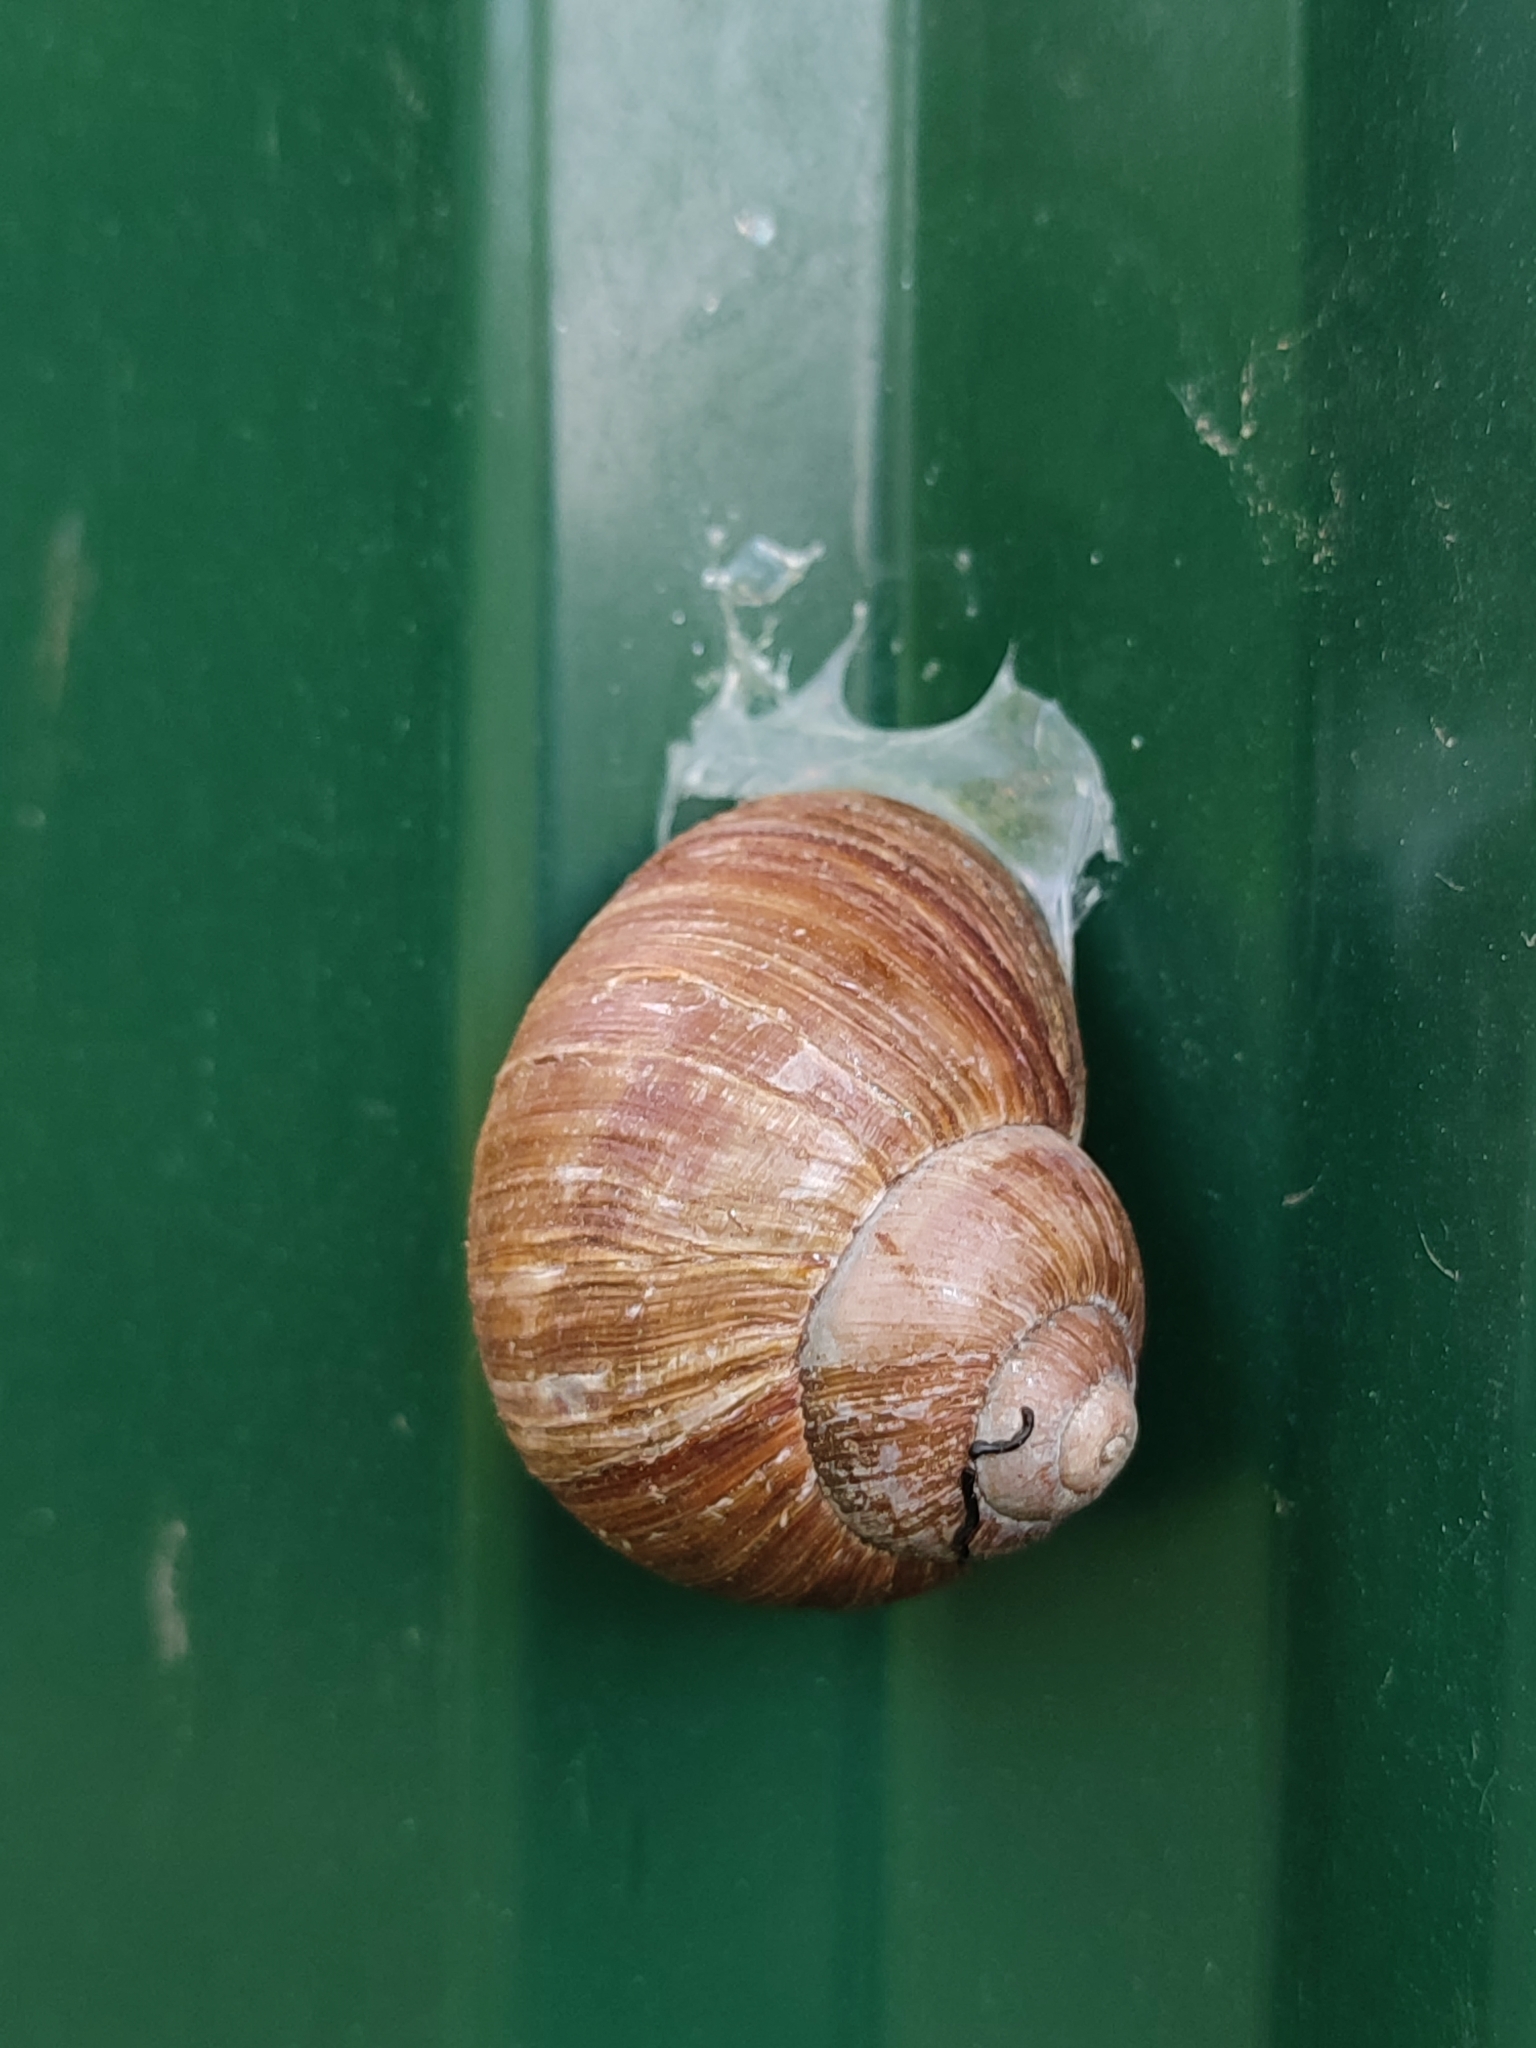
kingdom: Animalia
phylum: Mollusca
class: Gastropoda
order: Stylommatophora
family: Helicidae
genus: Helix
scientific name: Helix pomatia
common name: Roman snail
